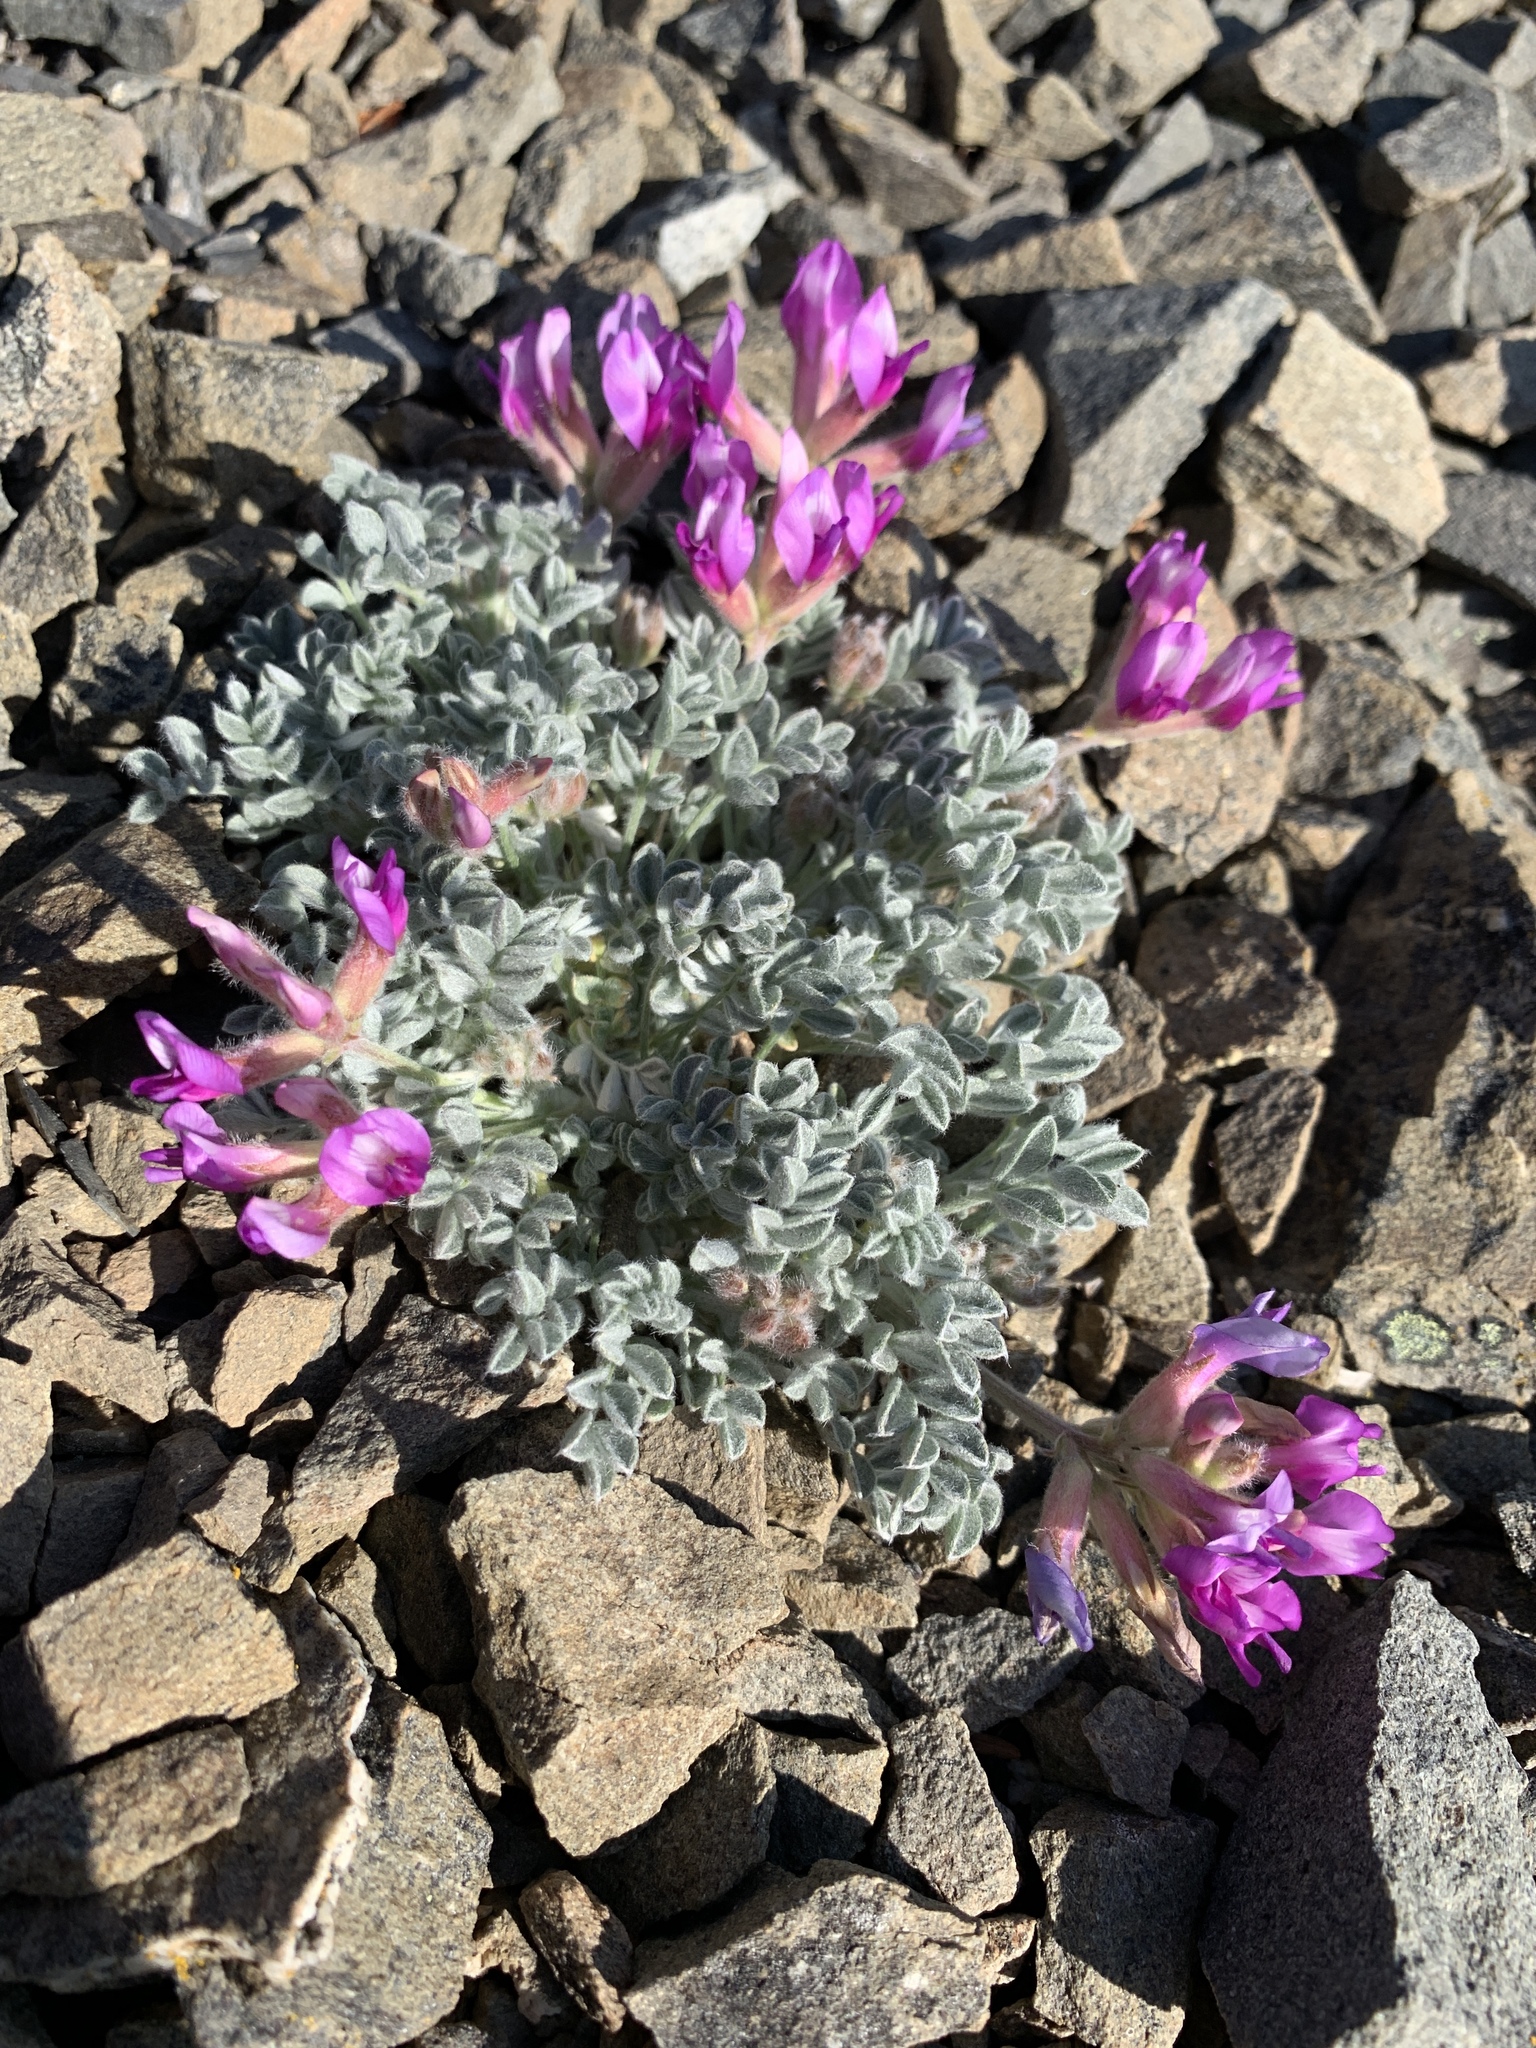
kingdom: Plantae
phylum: Tracheophyta
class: Magnoliopsida
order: Fabales
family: Fabaceae
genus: Astragalus
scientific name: Astragalus purshii
